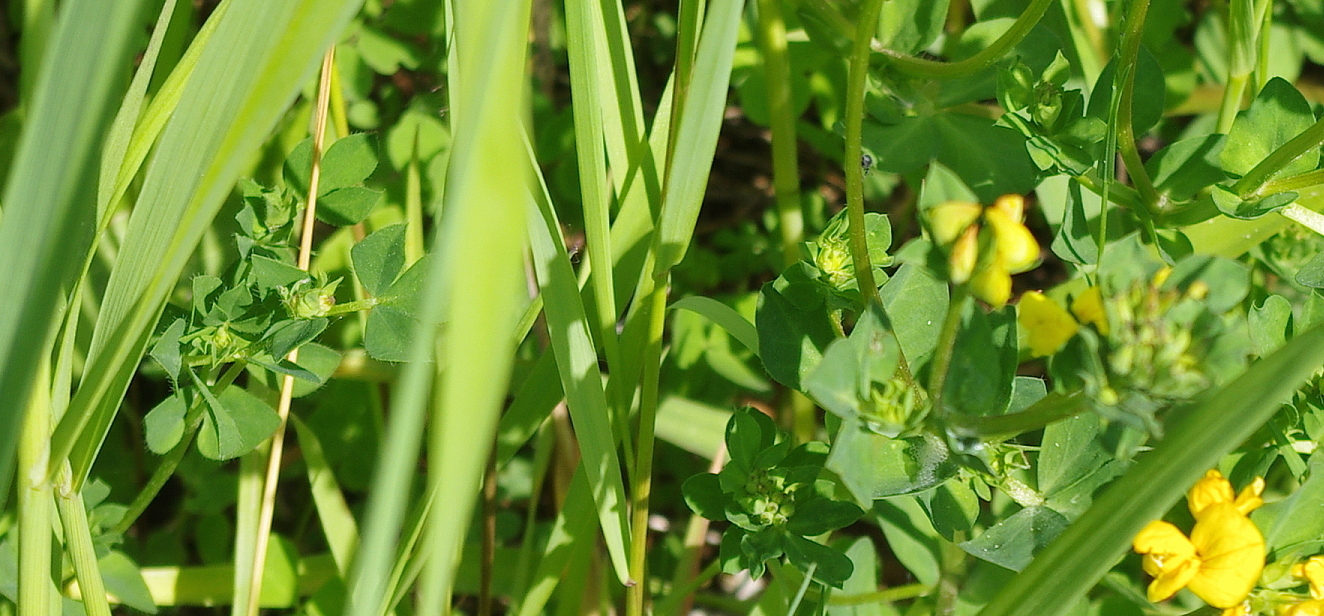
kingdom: Plantae
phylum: Tracheophyta
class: Magnoliopsida
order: Fabales
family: Fabaceae
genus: Lotus
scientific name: Lotus corniculatus
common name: Common bird's-foot-trefoil
